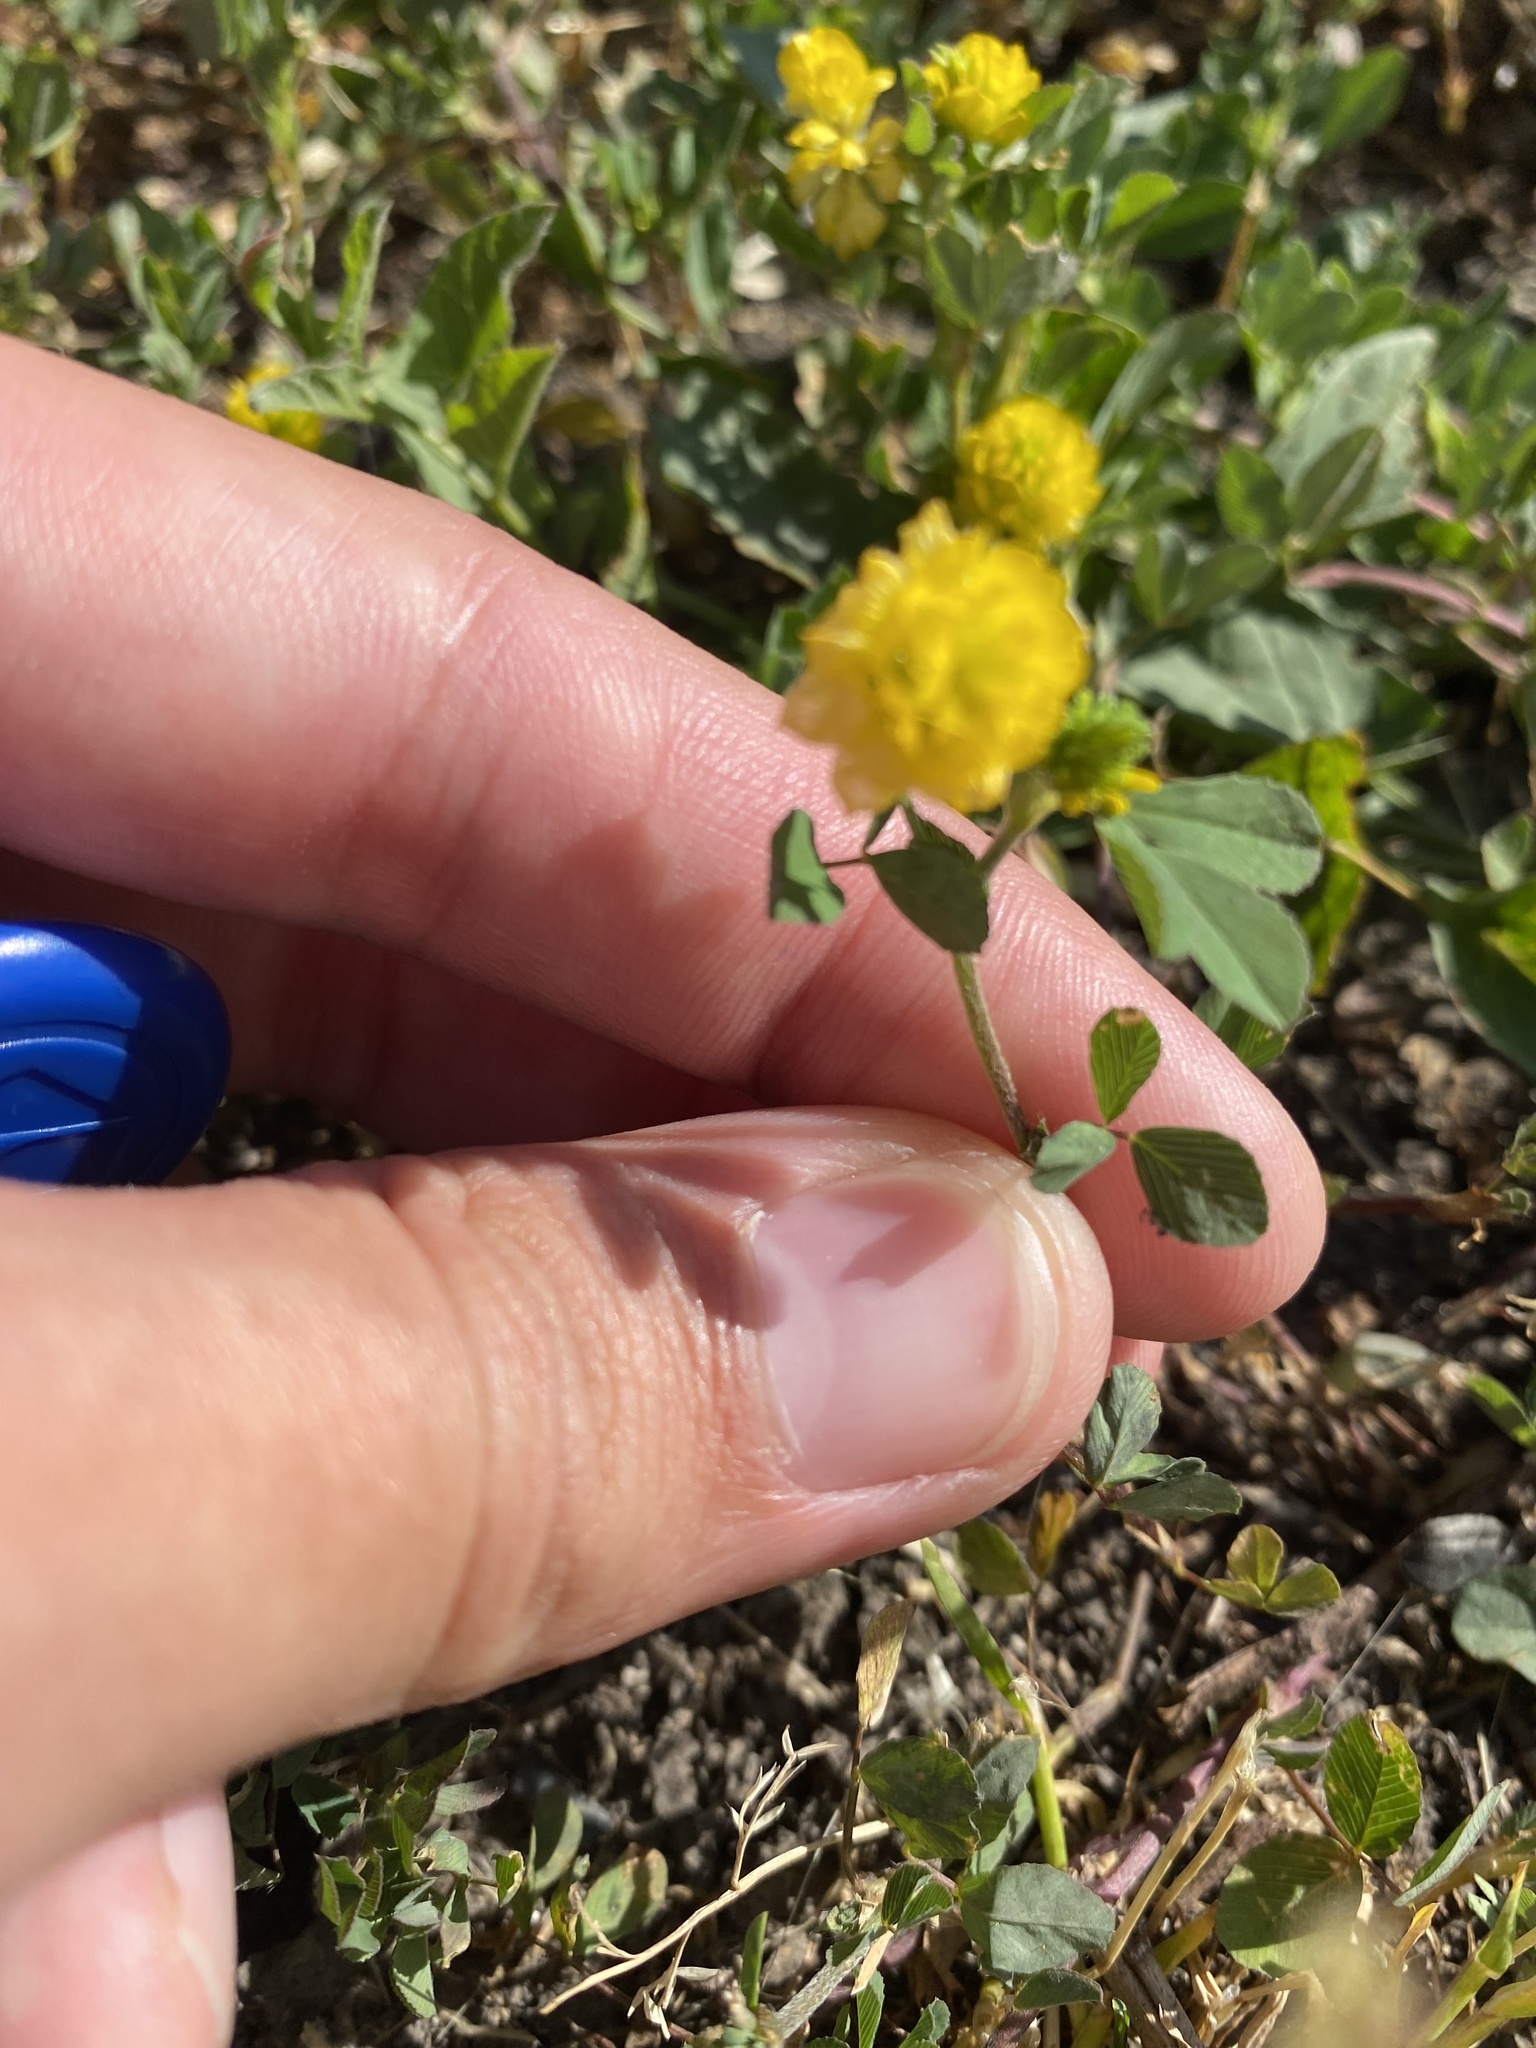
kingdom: Plantae
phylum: Tracheophyta
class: Magnoliopsida
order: Fabales
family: Fabaceae
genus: Trifolium
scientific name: Trifolium campestre
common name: Field clover
